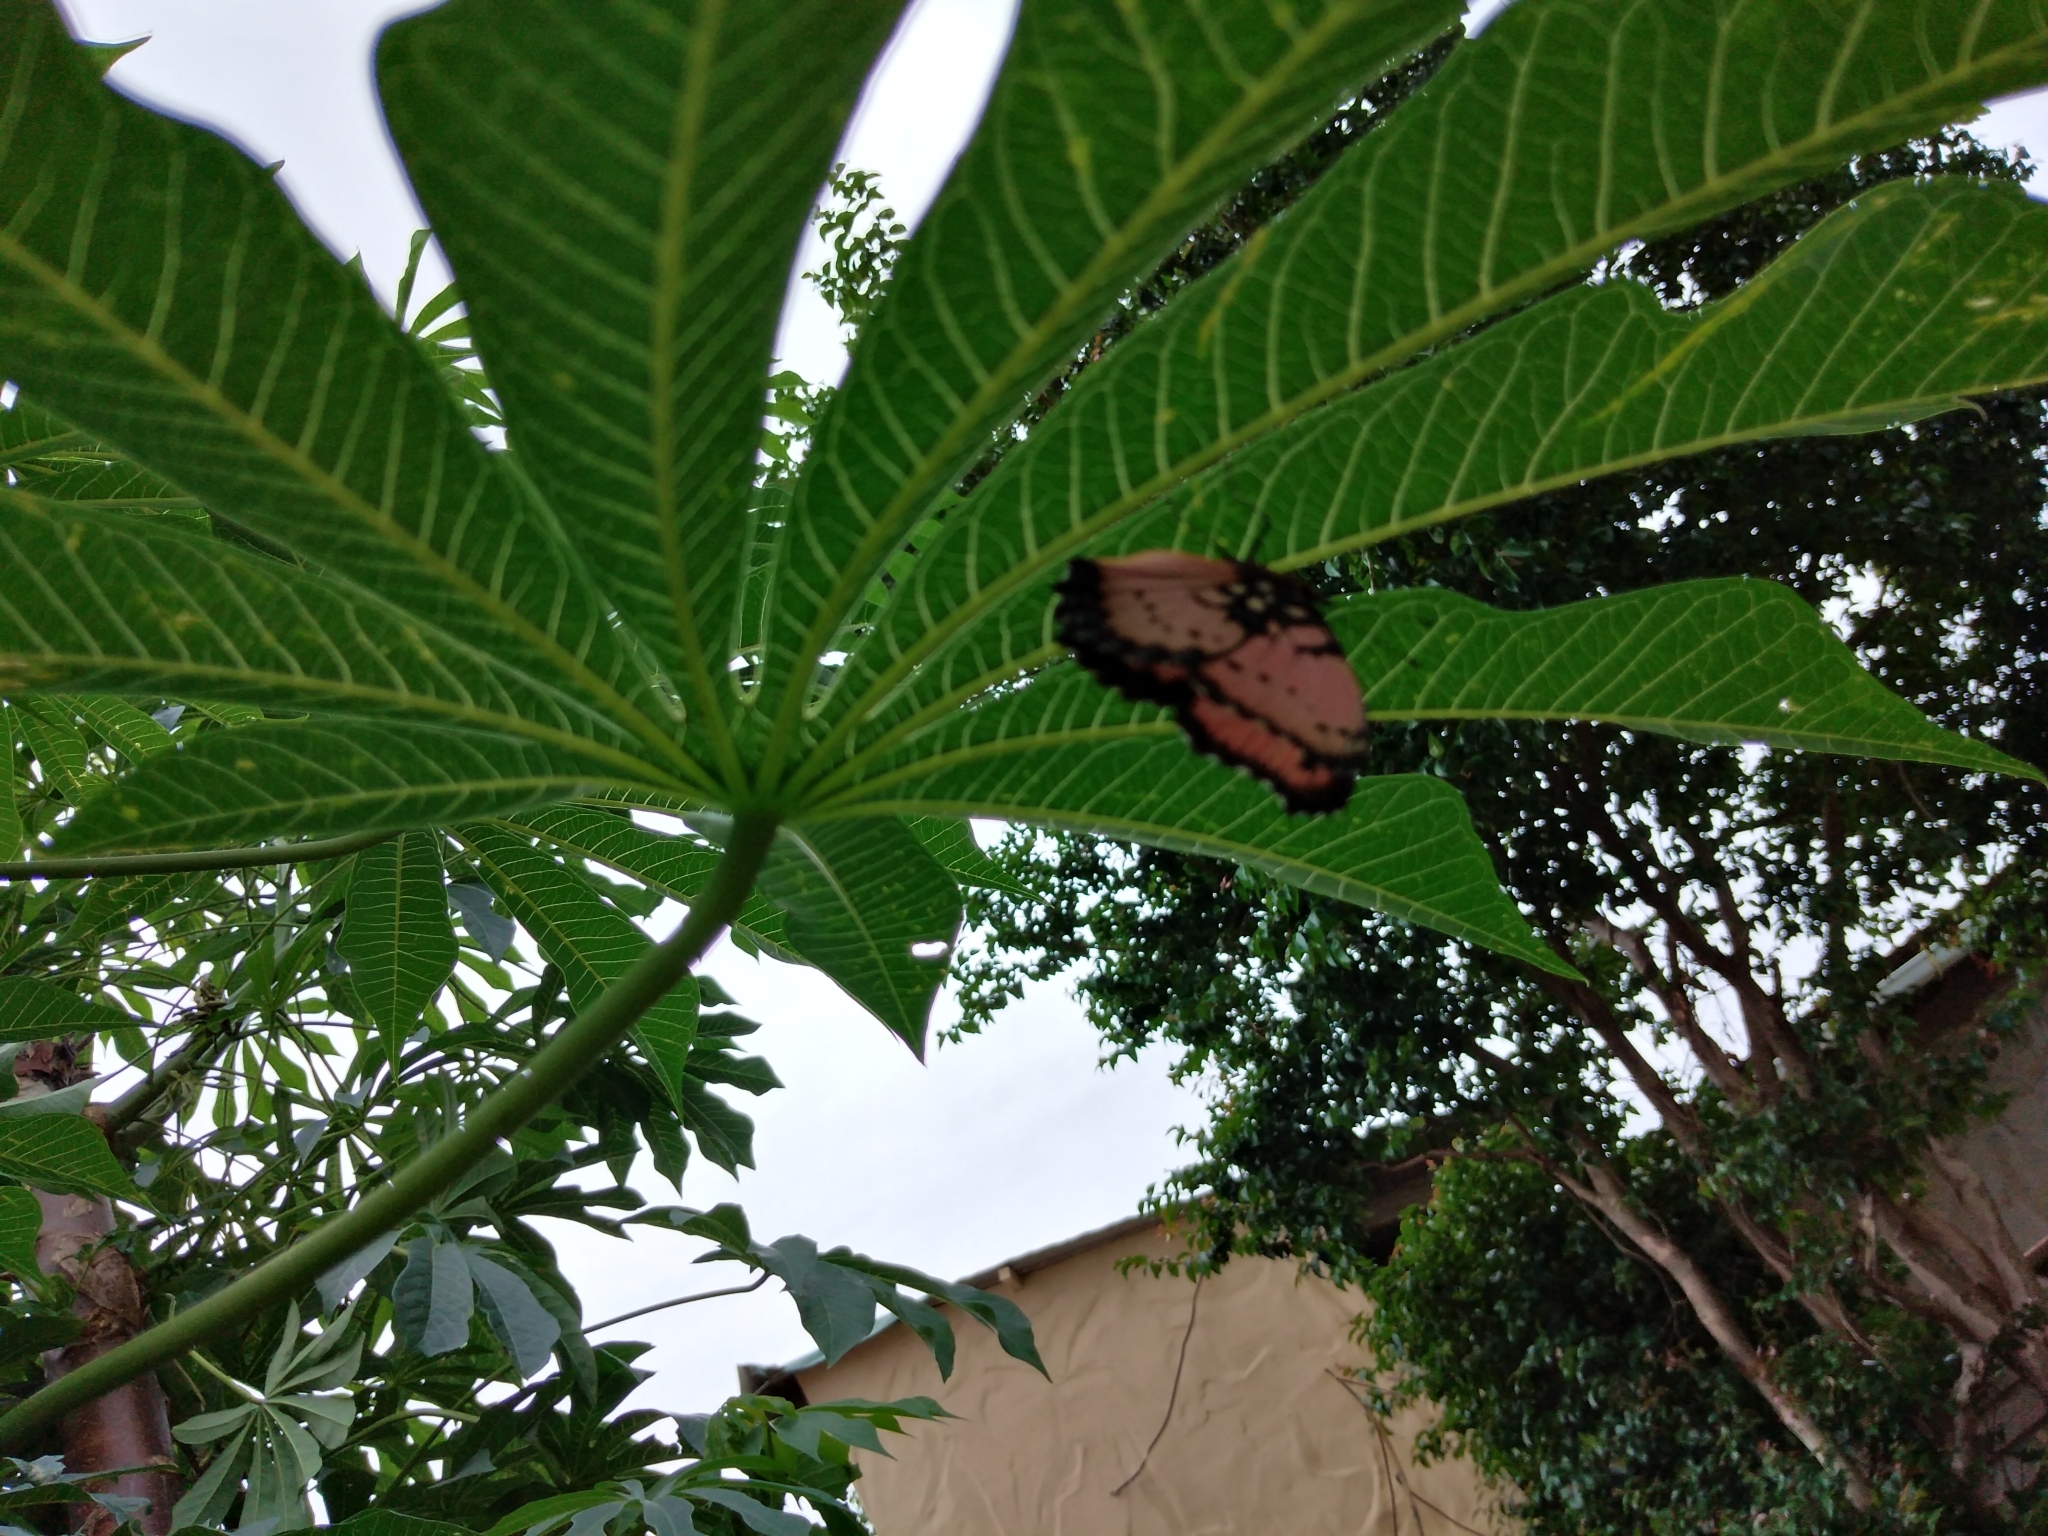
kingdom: Animalia
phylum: Arthropoda
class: Insecta
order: Lepidoptera
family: Nymphalidae
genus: Precis
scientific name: Precis octavia
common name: Gaudy commodore
